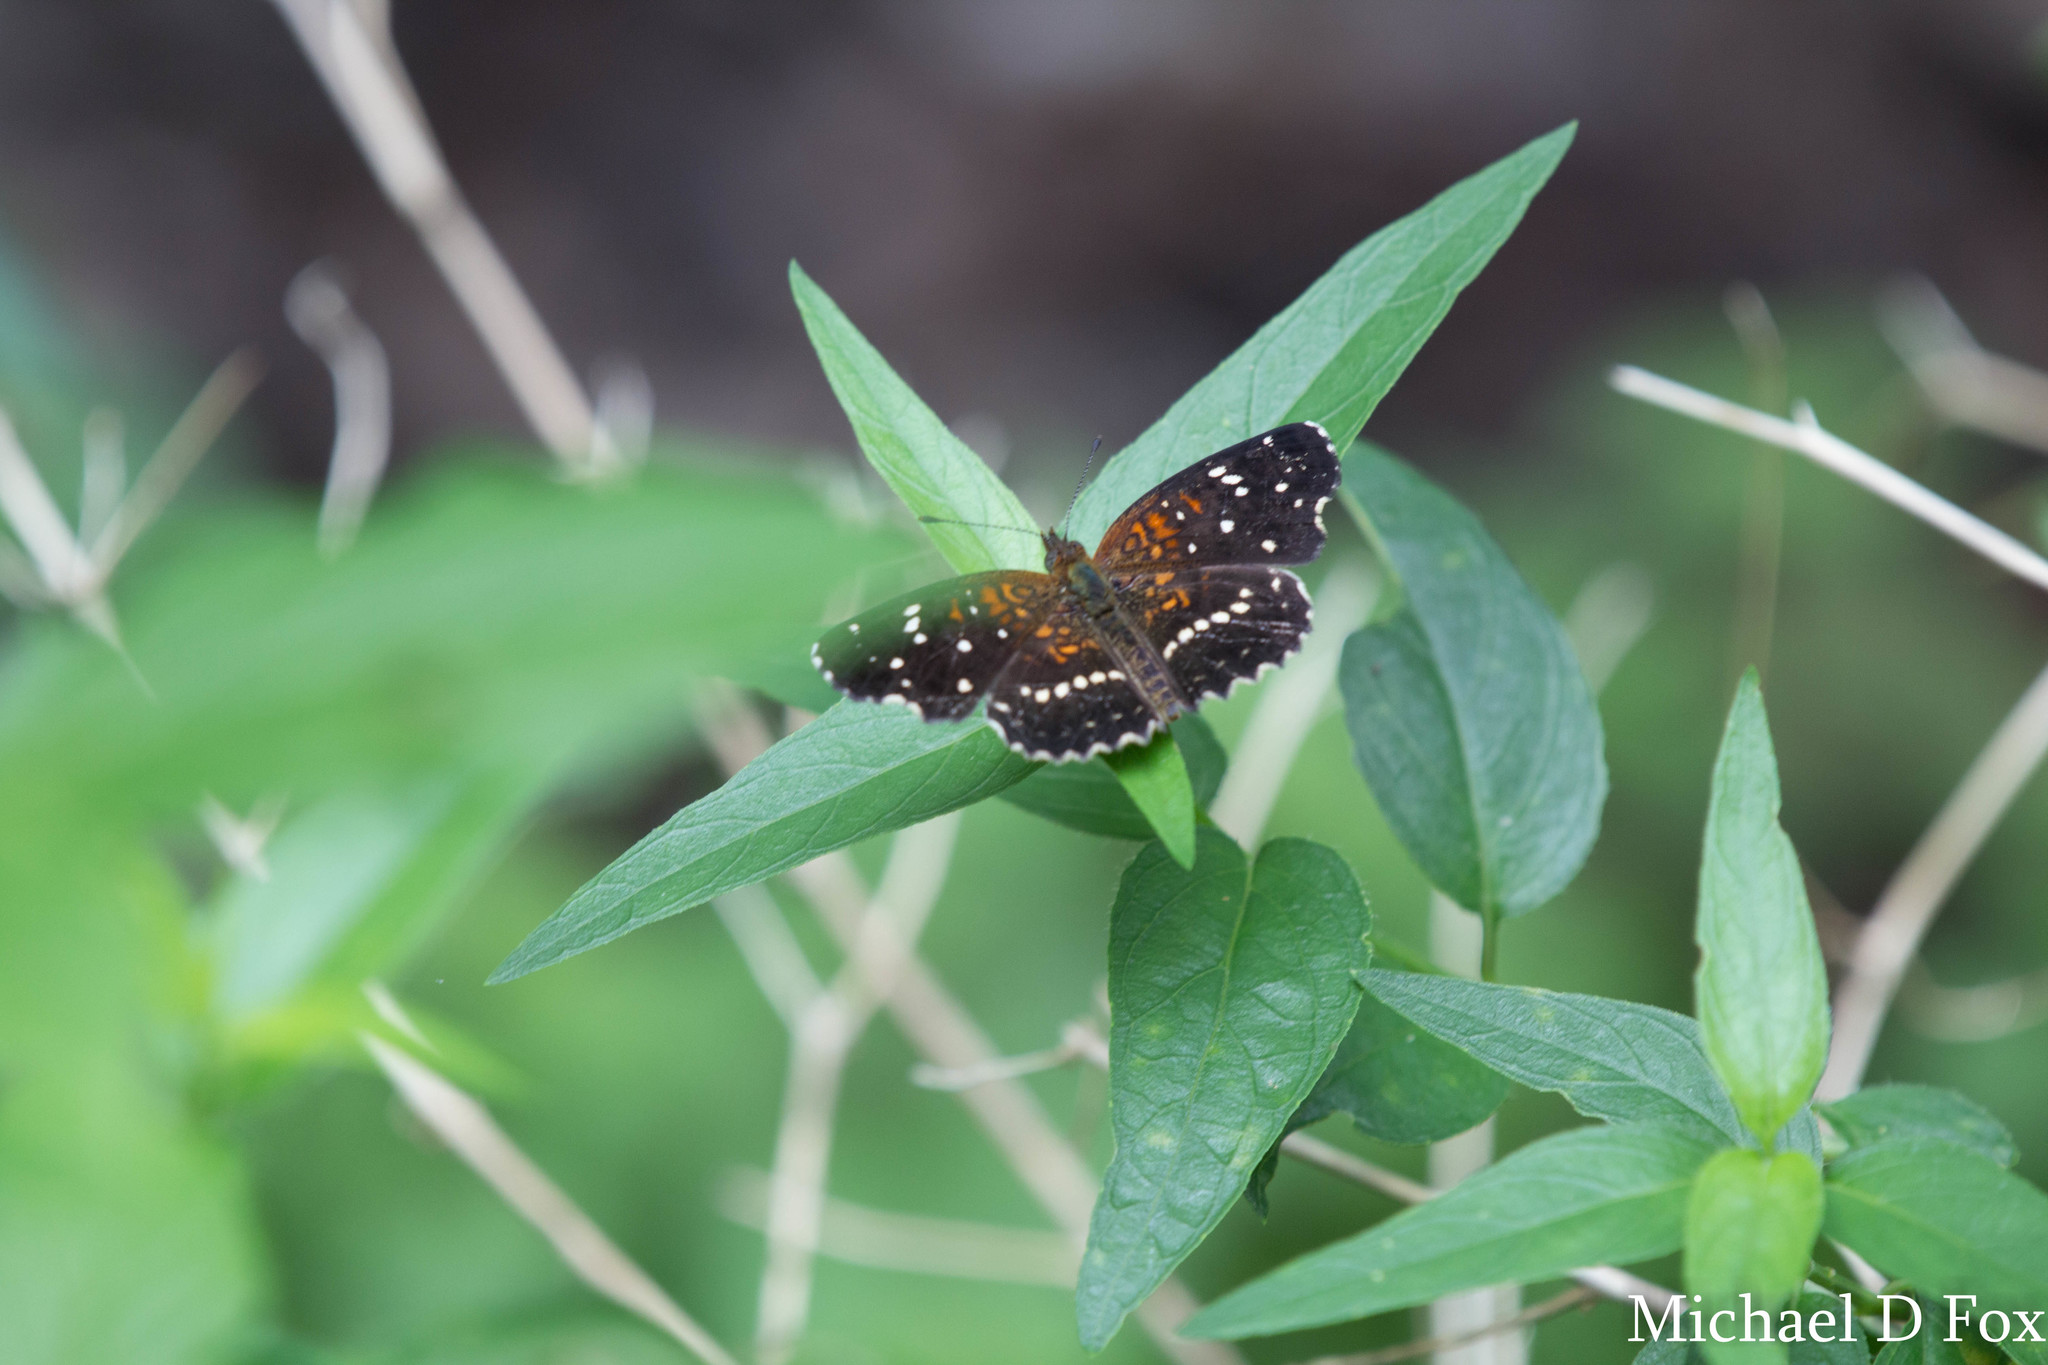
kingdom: Animalia
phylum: Arthropoda
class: Insecta
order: Lepidoptera
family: Nymphalidae
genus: Anthanassa
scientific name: Anthanassa texana
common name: Texan crescent
